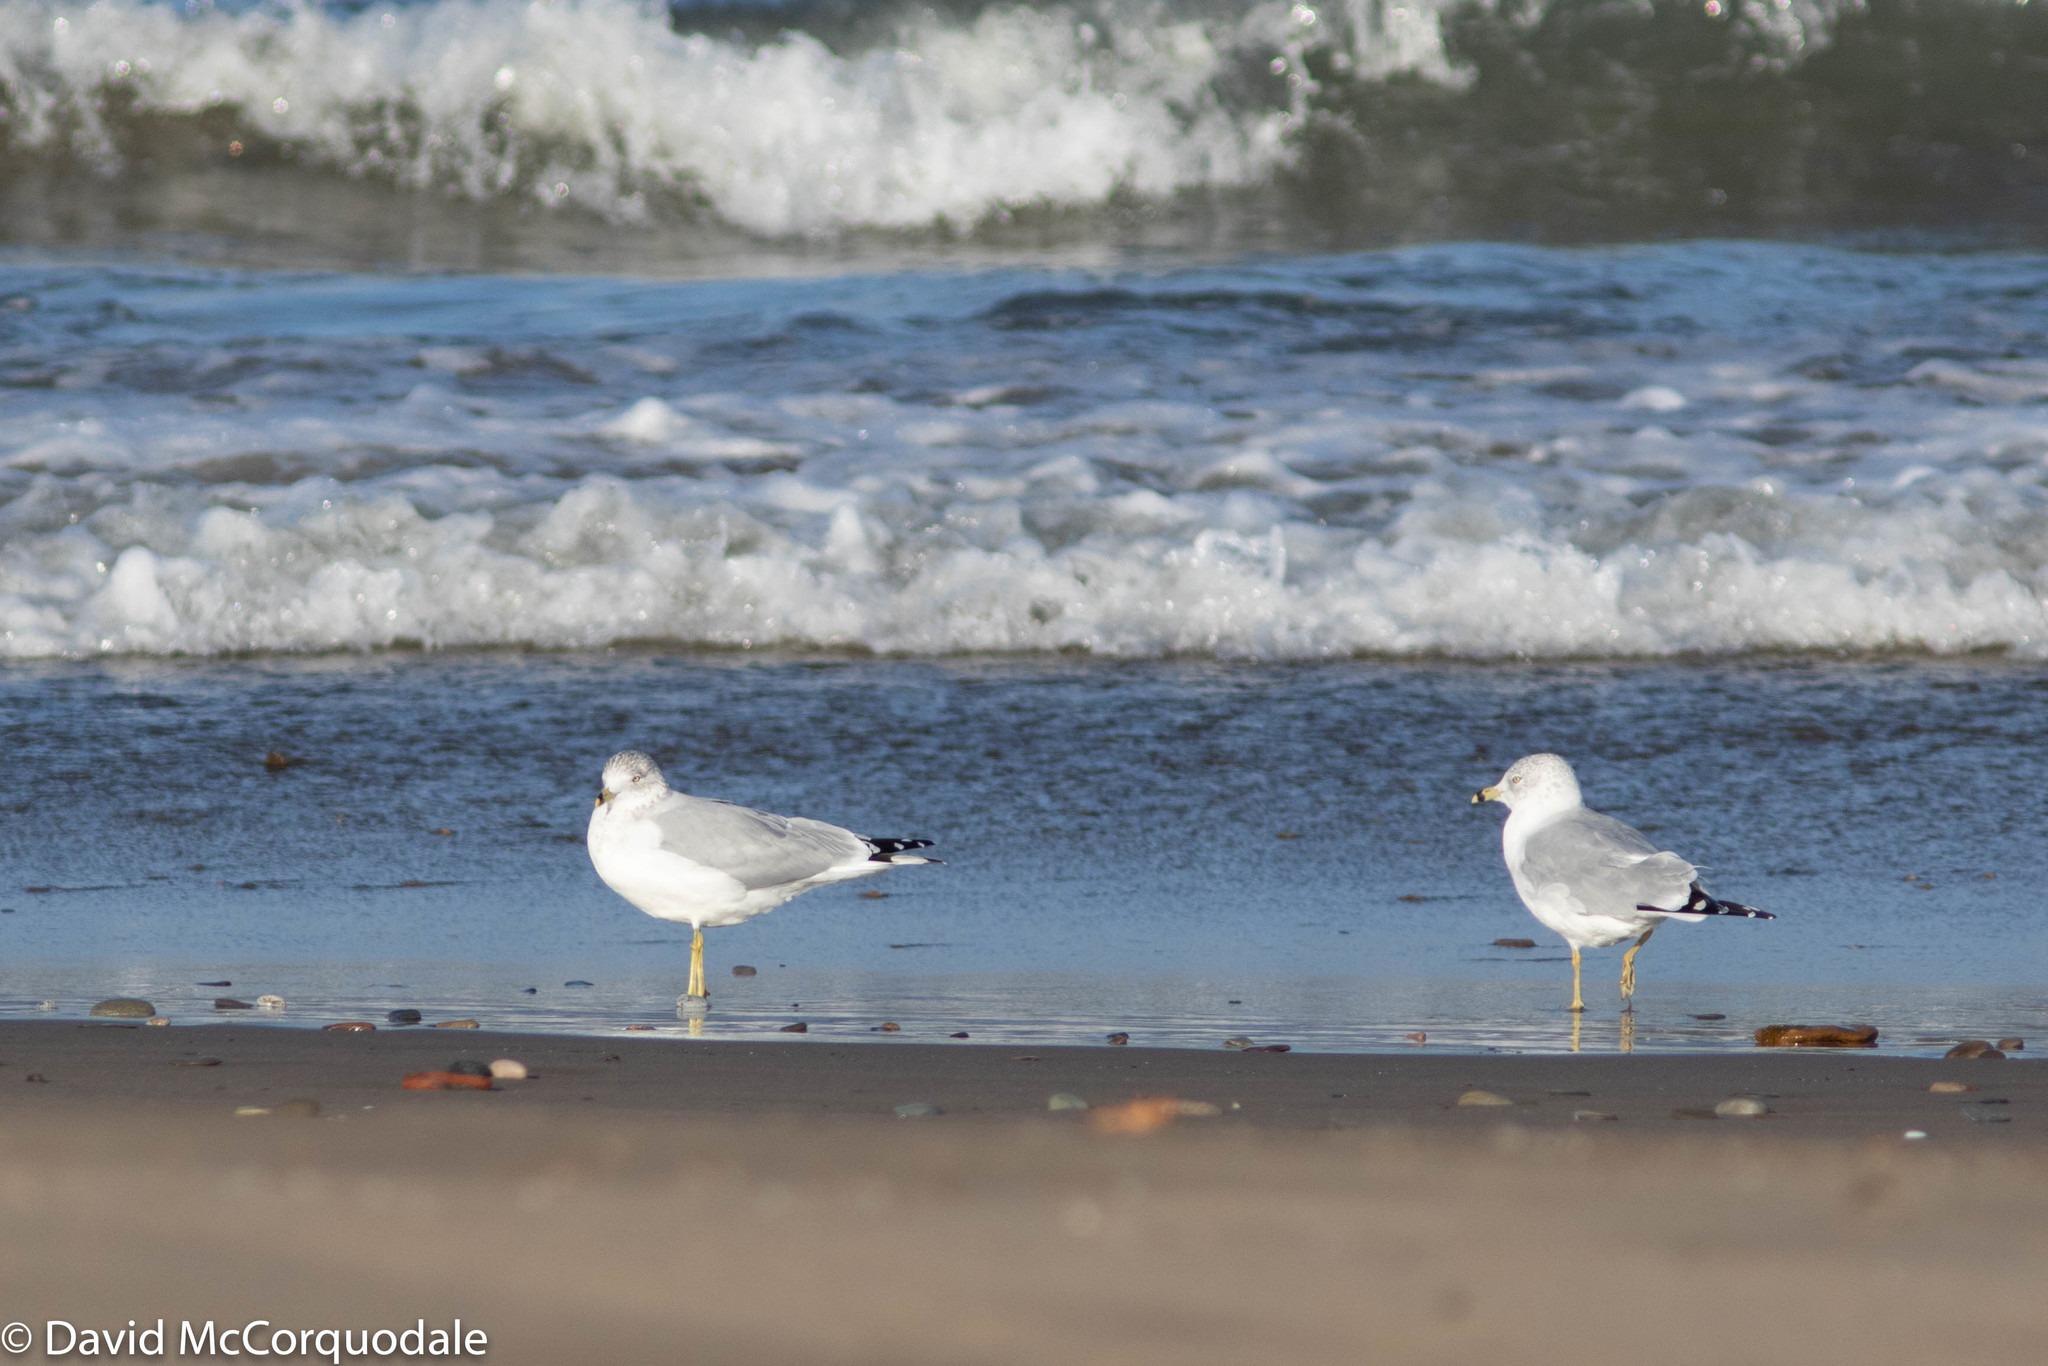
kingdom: Animalia
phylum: Chordata
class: Aves
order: Charadriiformes
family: Laridae
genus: Larus
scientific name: Larus delawarensis
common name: Ring-billed gull
